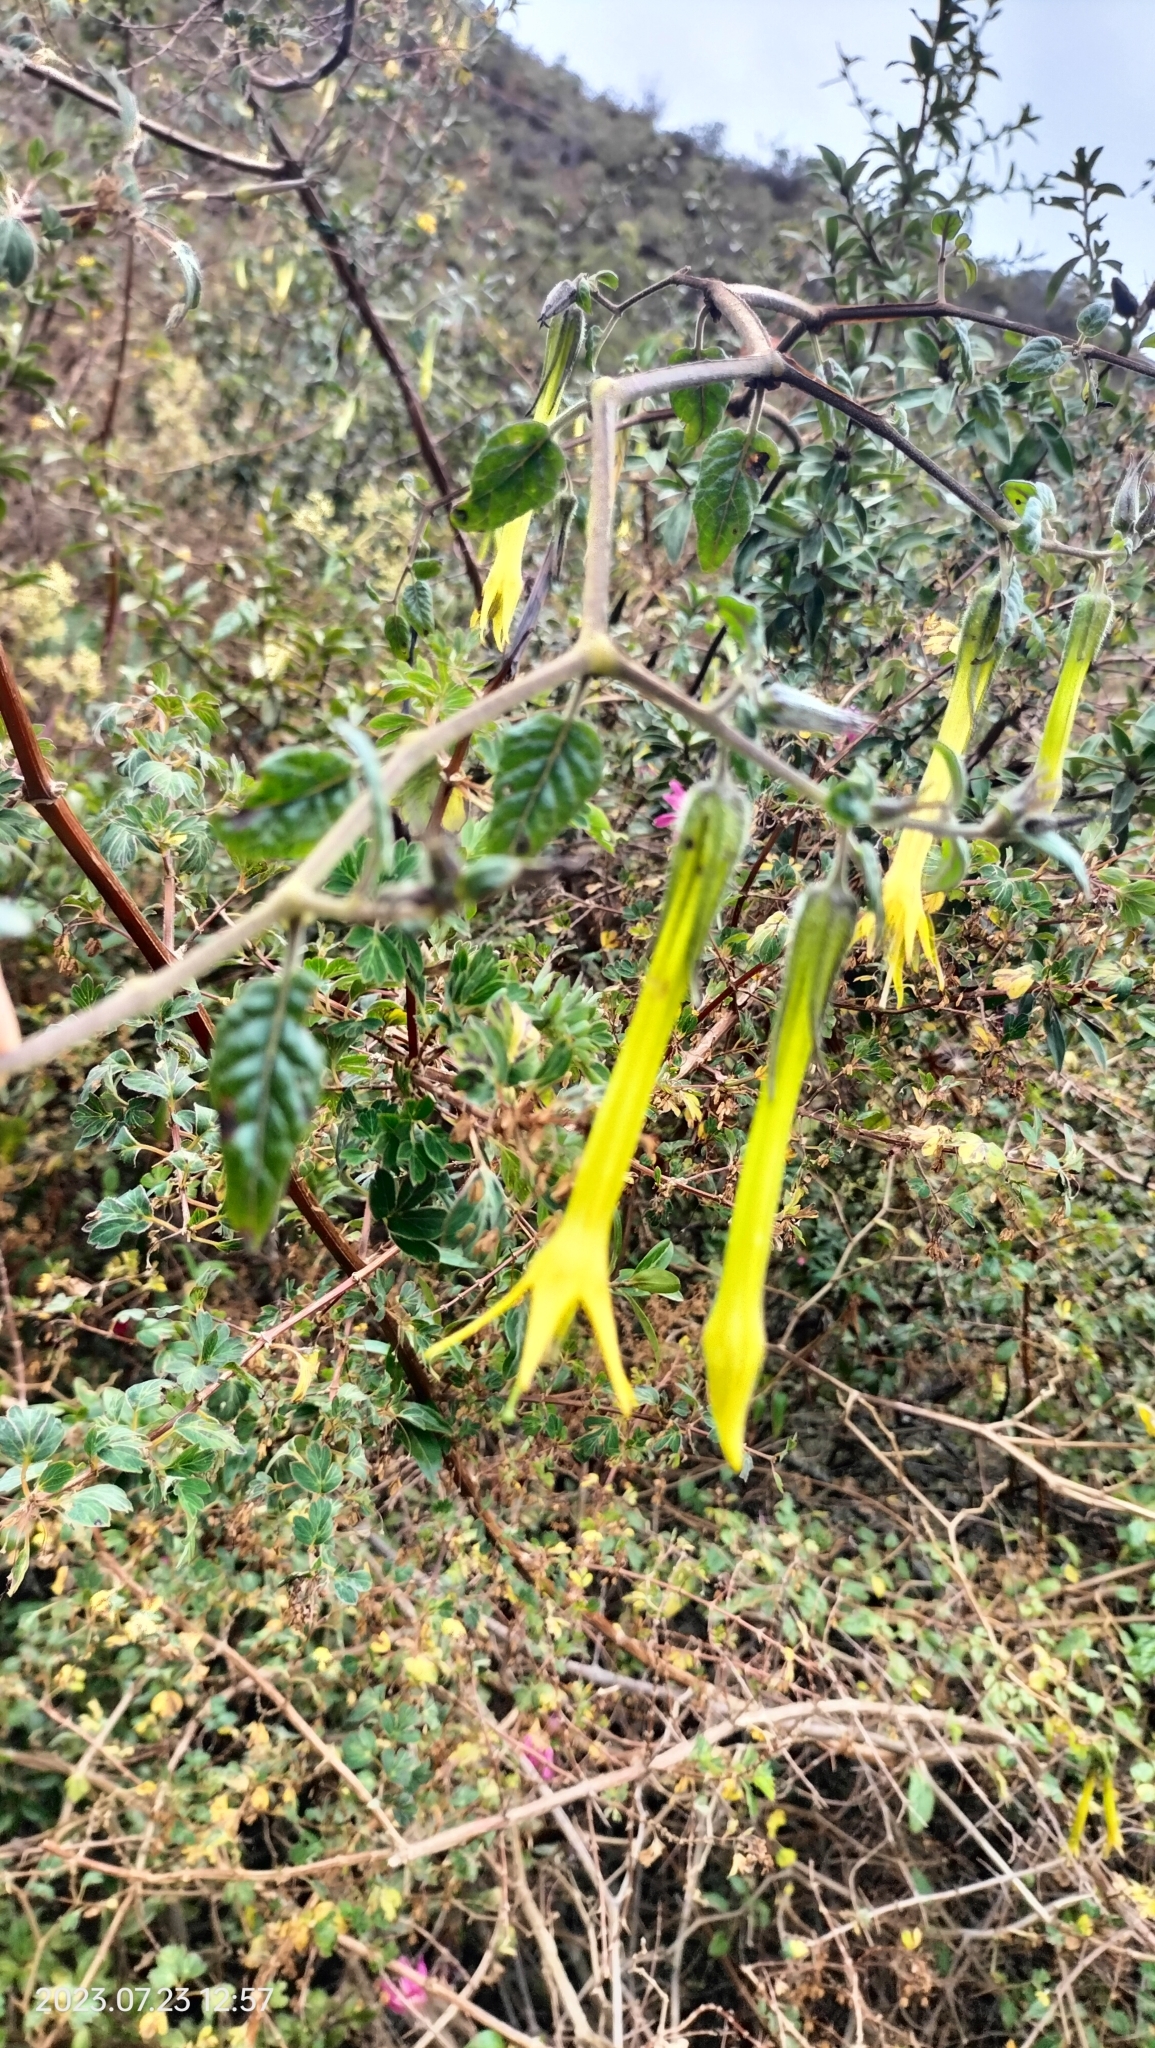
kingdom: Plantae
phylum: Tracheophyta
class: Magnoliopsida
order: Solanales
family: Solanaceae
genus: Salpichroa
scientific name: Salpichroa didierana
